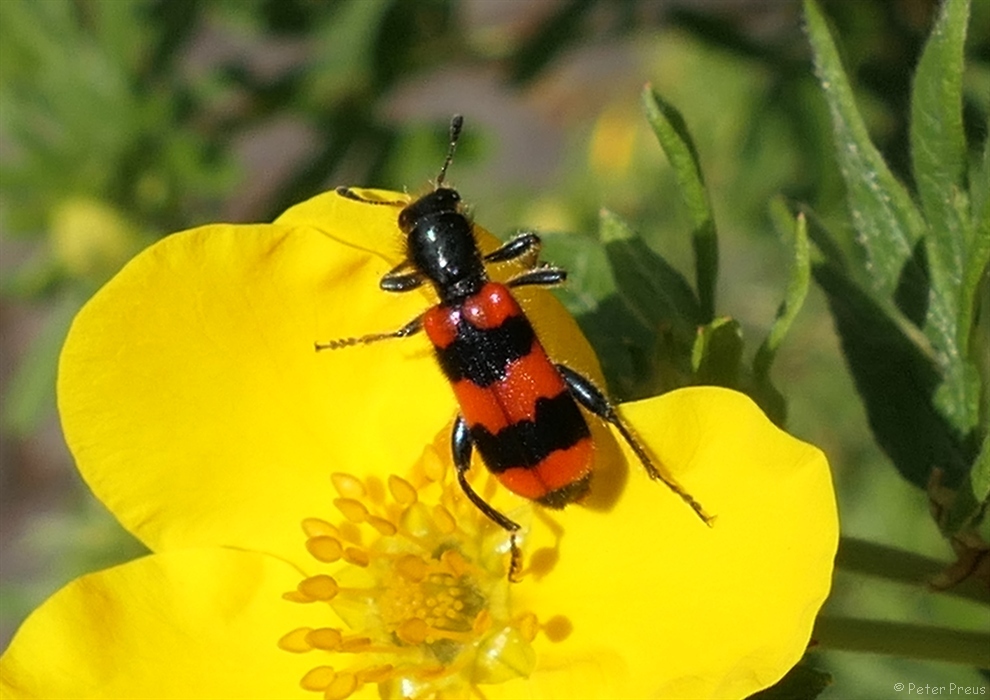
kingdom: Animalia
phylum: Arthropoda
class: Insecta
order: Coleoptera
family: Cleridae
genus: Trichodes
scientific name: Trichodes apiarius
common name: Bee-eating beetle
